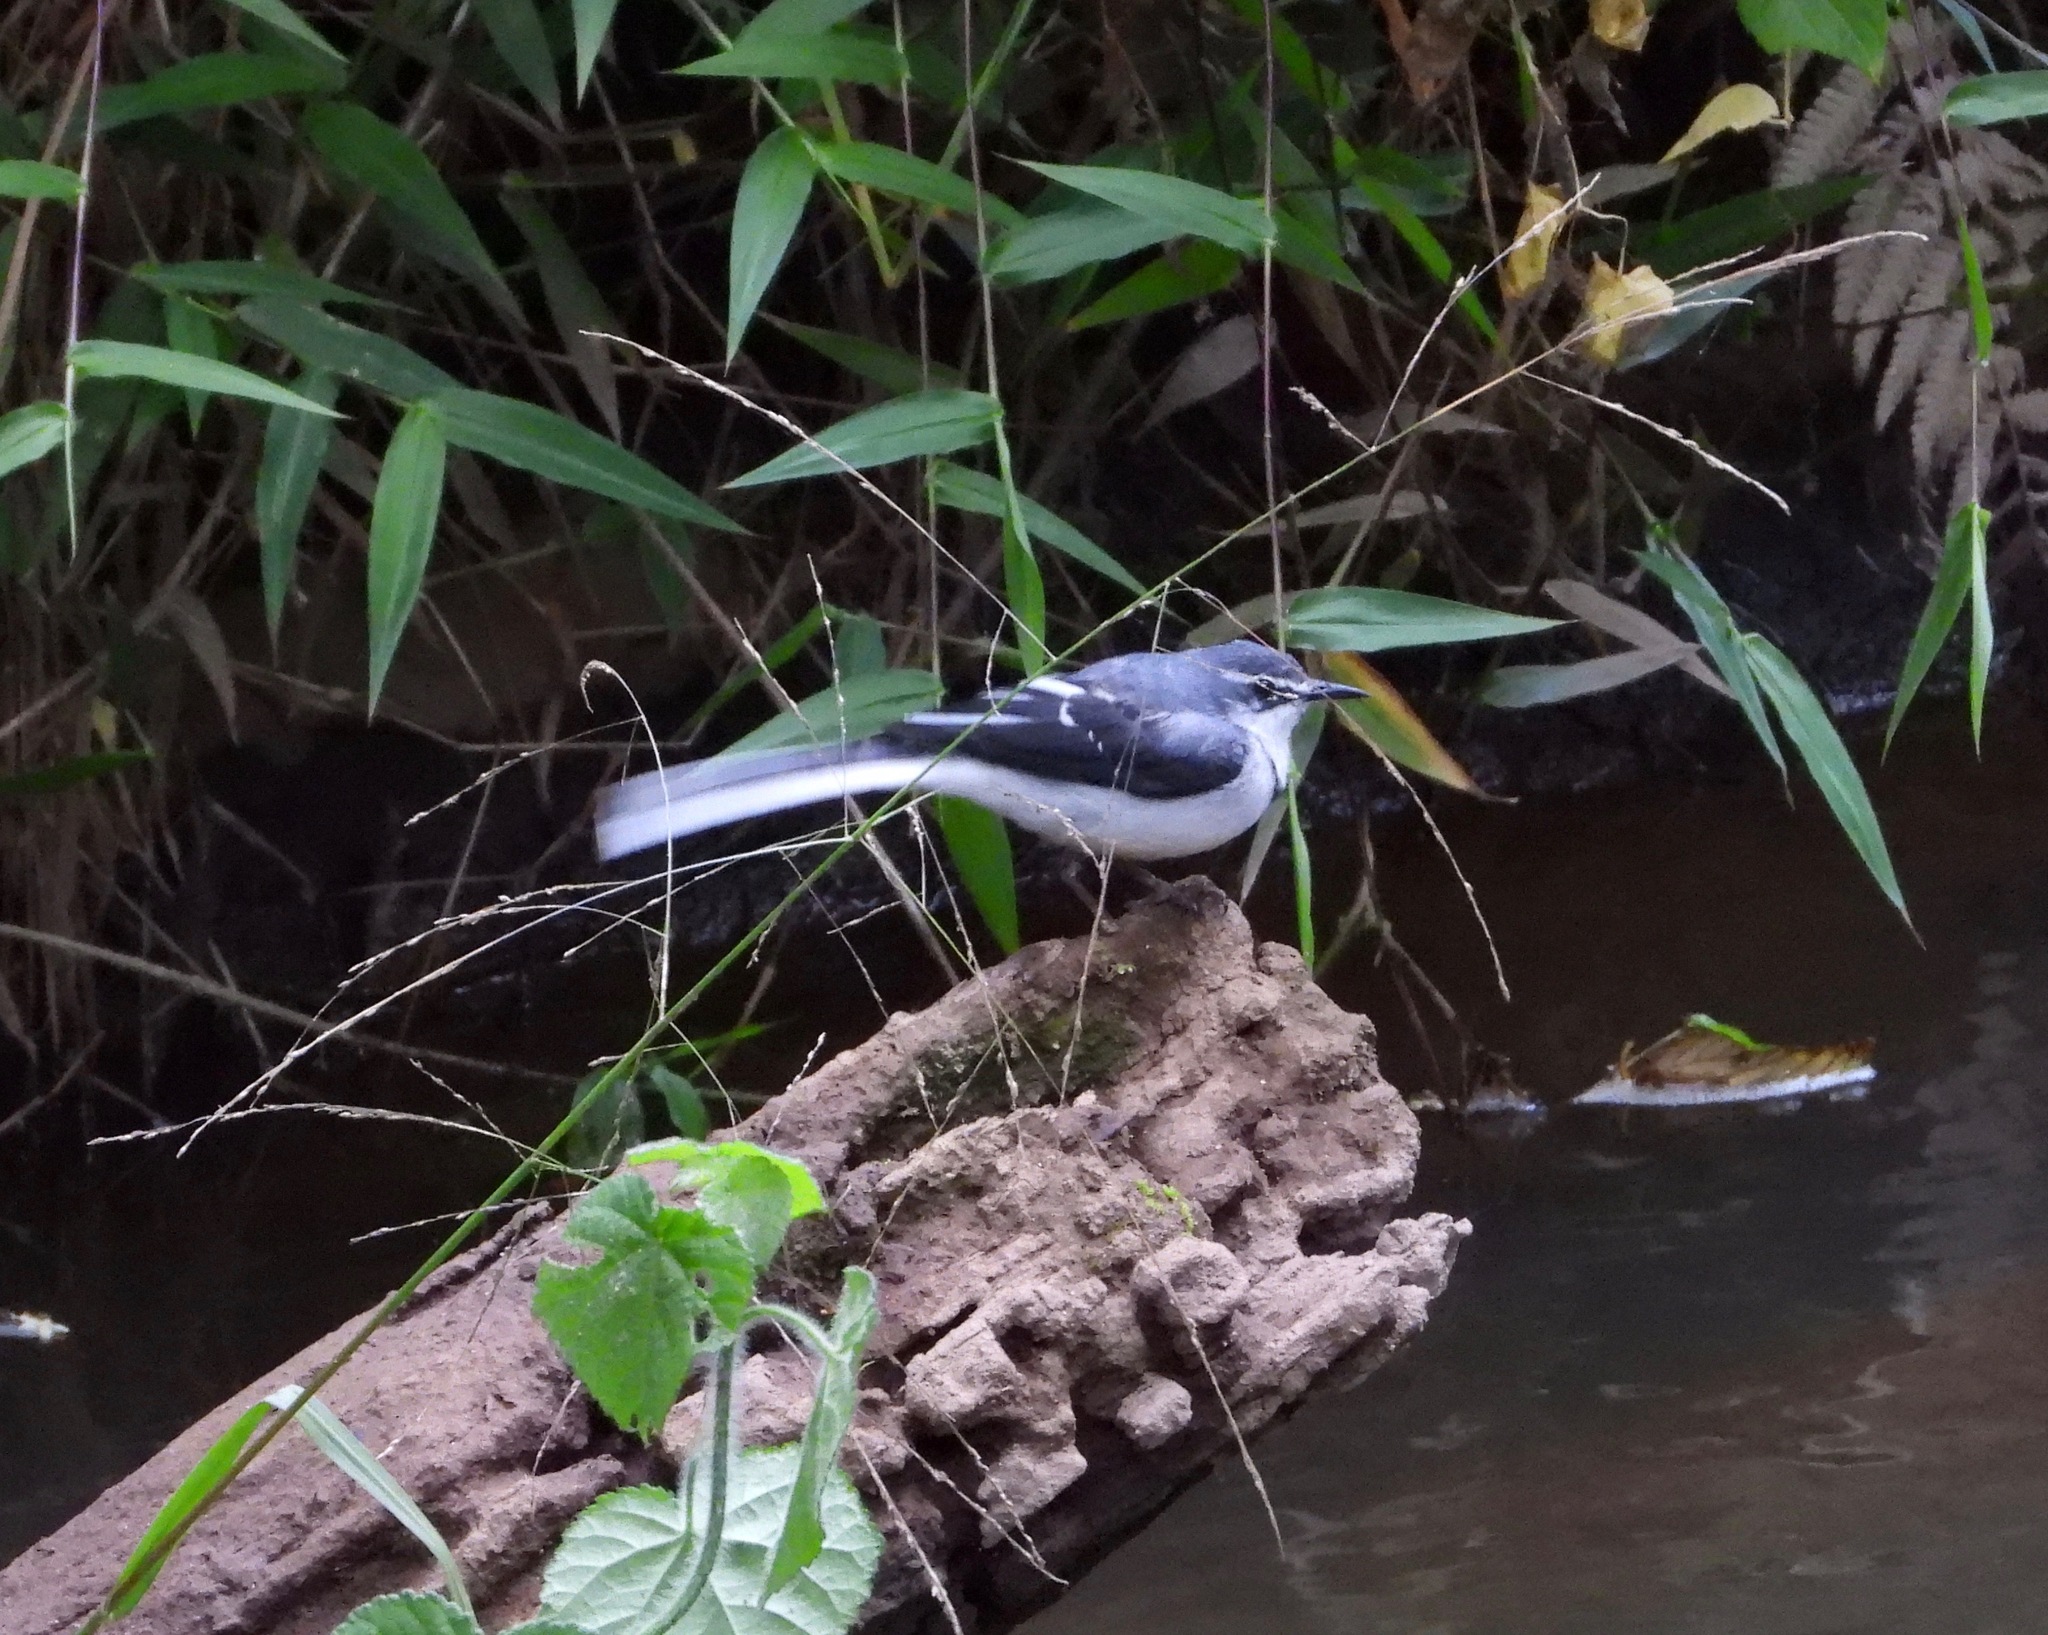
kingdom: Animalia
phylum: Chordata
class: Aves
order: Passeriformes
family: Motacillidae
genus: Motacilla
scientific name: Motacilla clara
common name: Mountain wagtail
